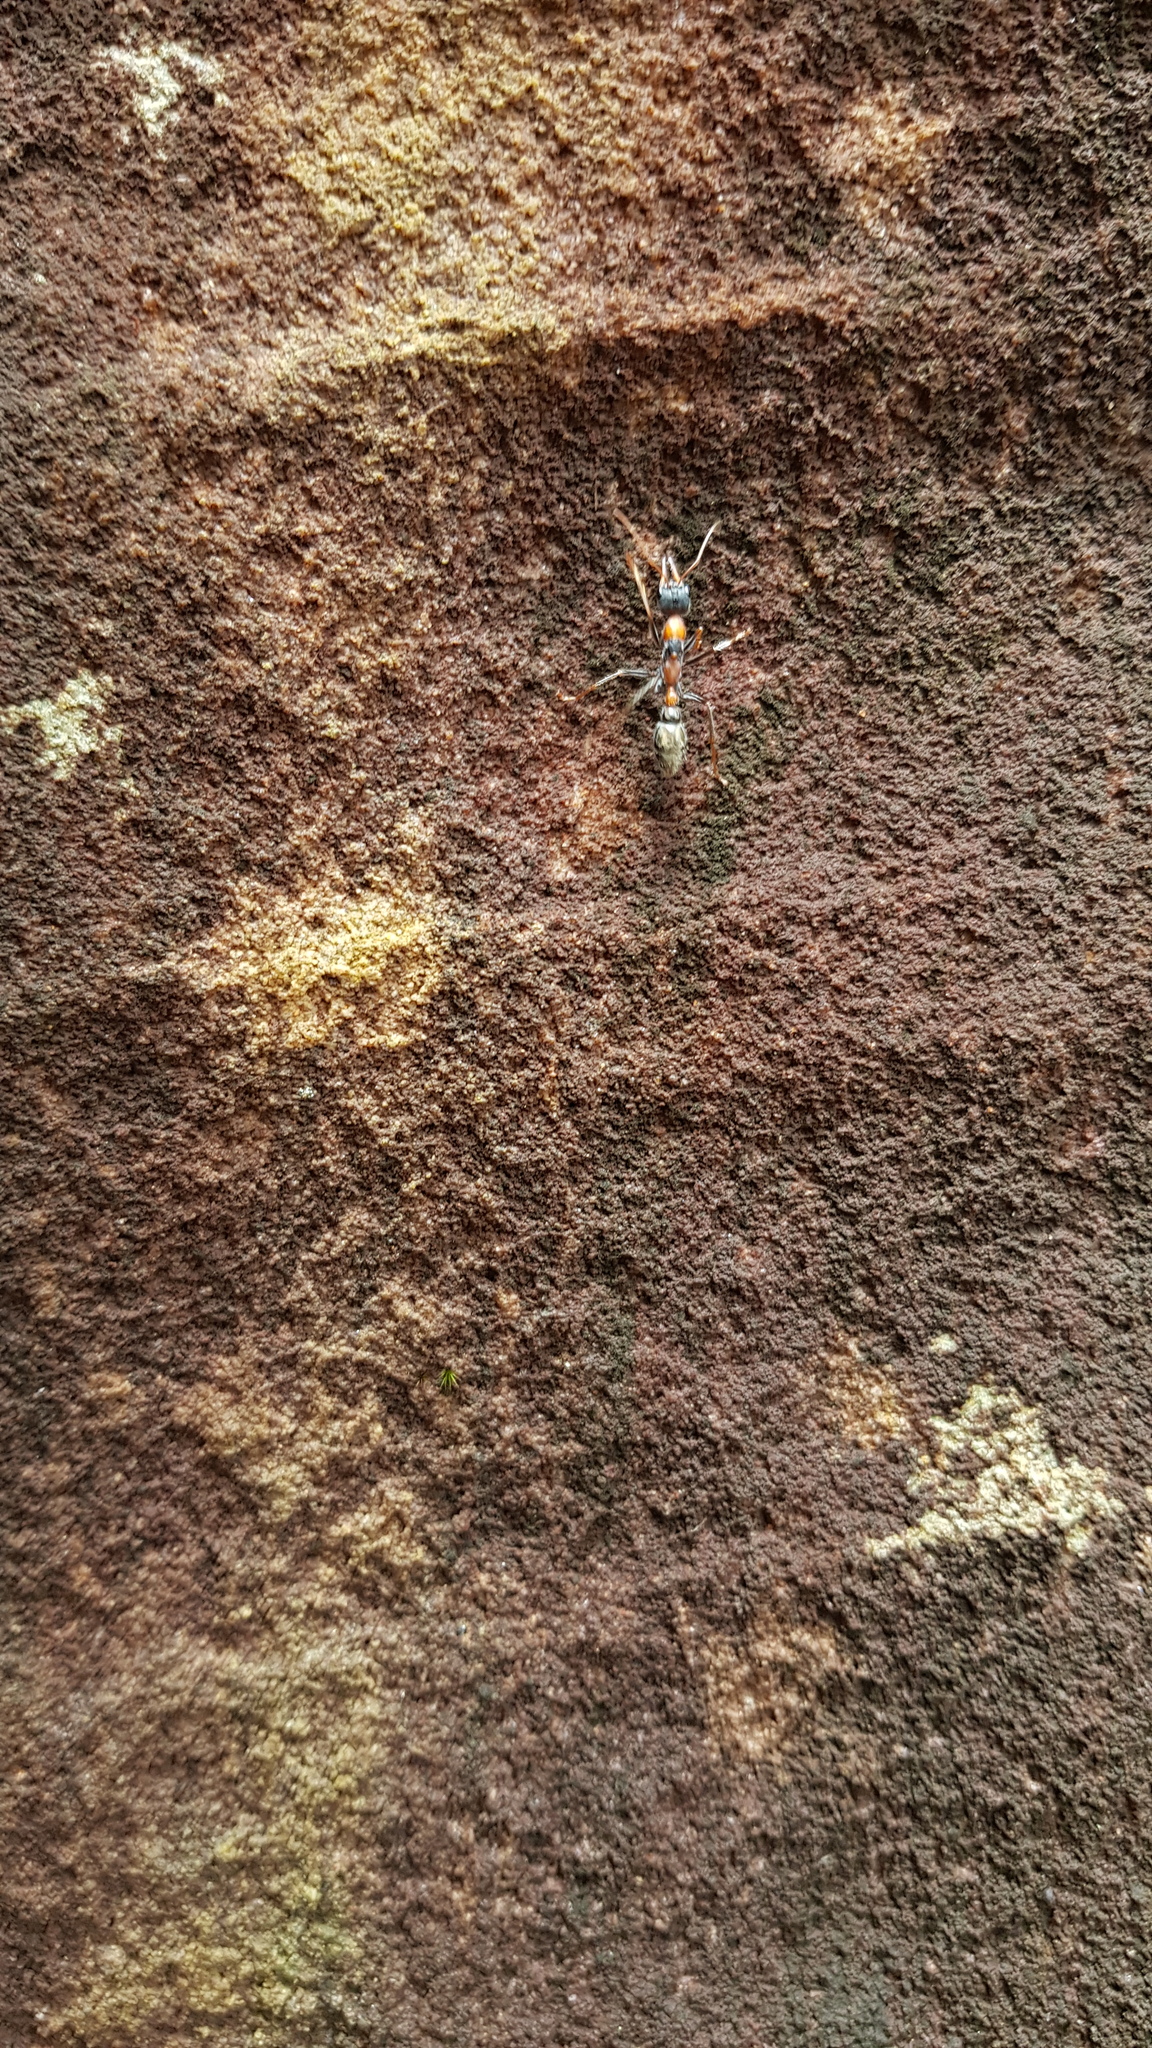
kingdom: Animalia
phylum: Arthropoda
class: Insecta
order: Hymenoptera
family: Formicidae
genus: Myrmecia
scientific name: Myrmecia nigrocincta
